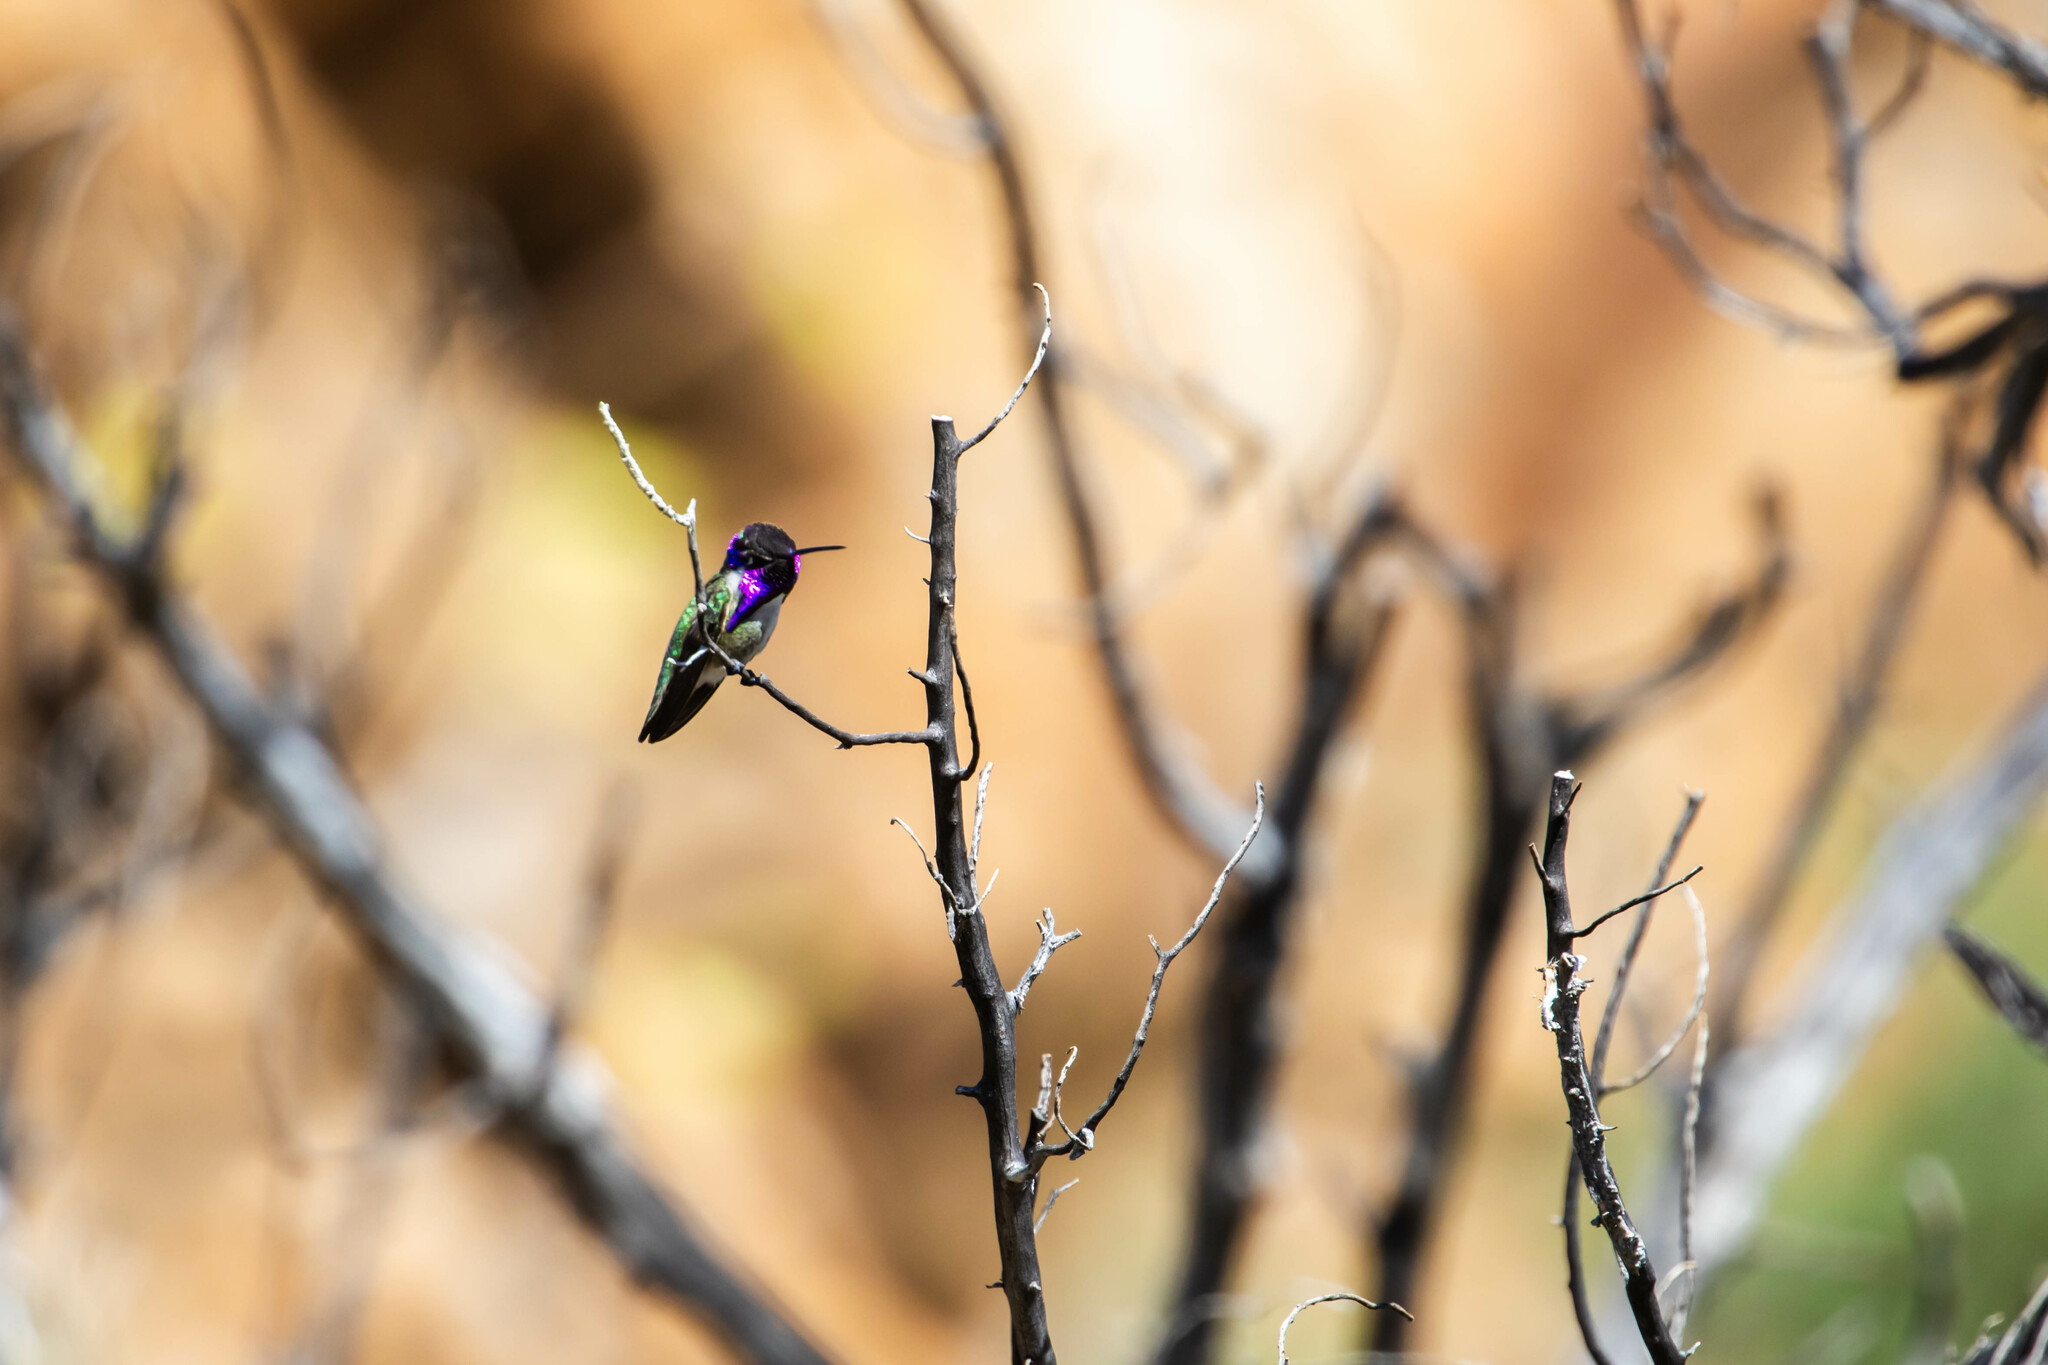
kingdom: Animalia
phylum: Chordata
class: Aves
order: Apodiformes
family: Trochilidae
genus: Calypte
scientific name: Calypte costae
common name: Costa's hummingbird
